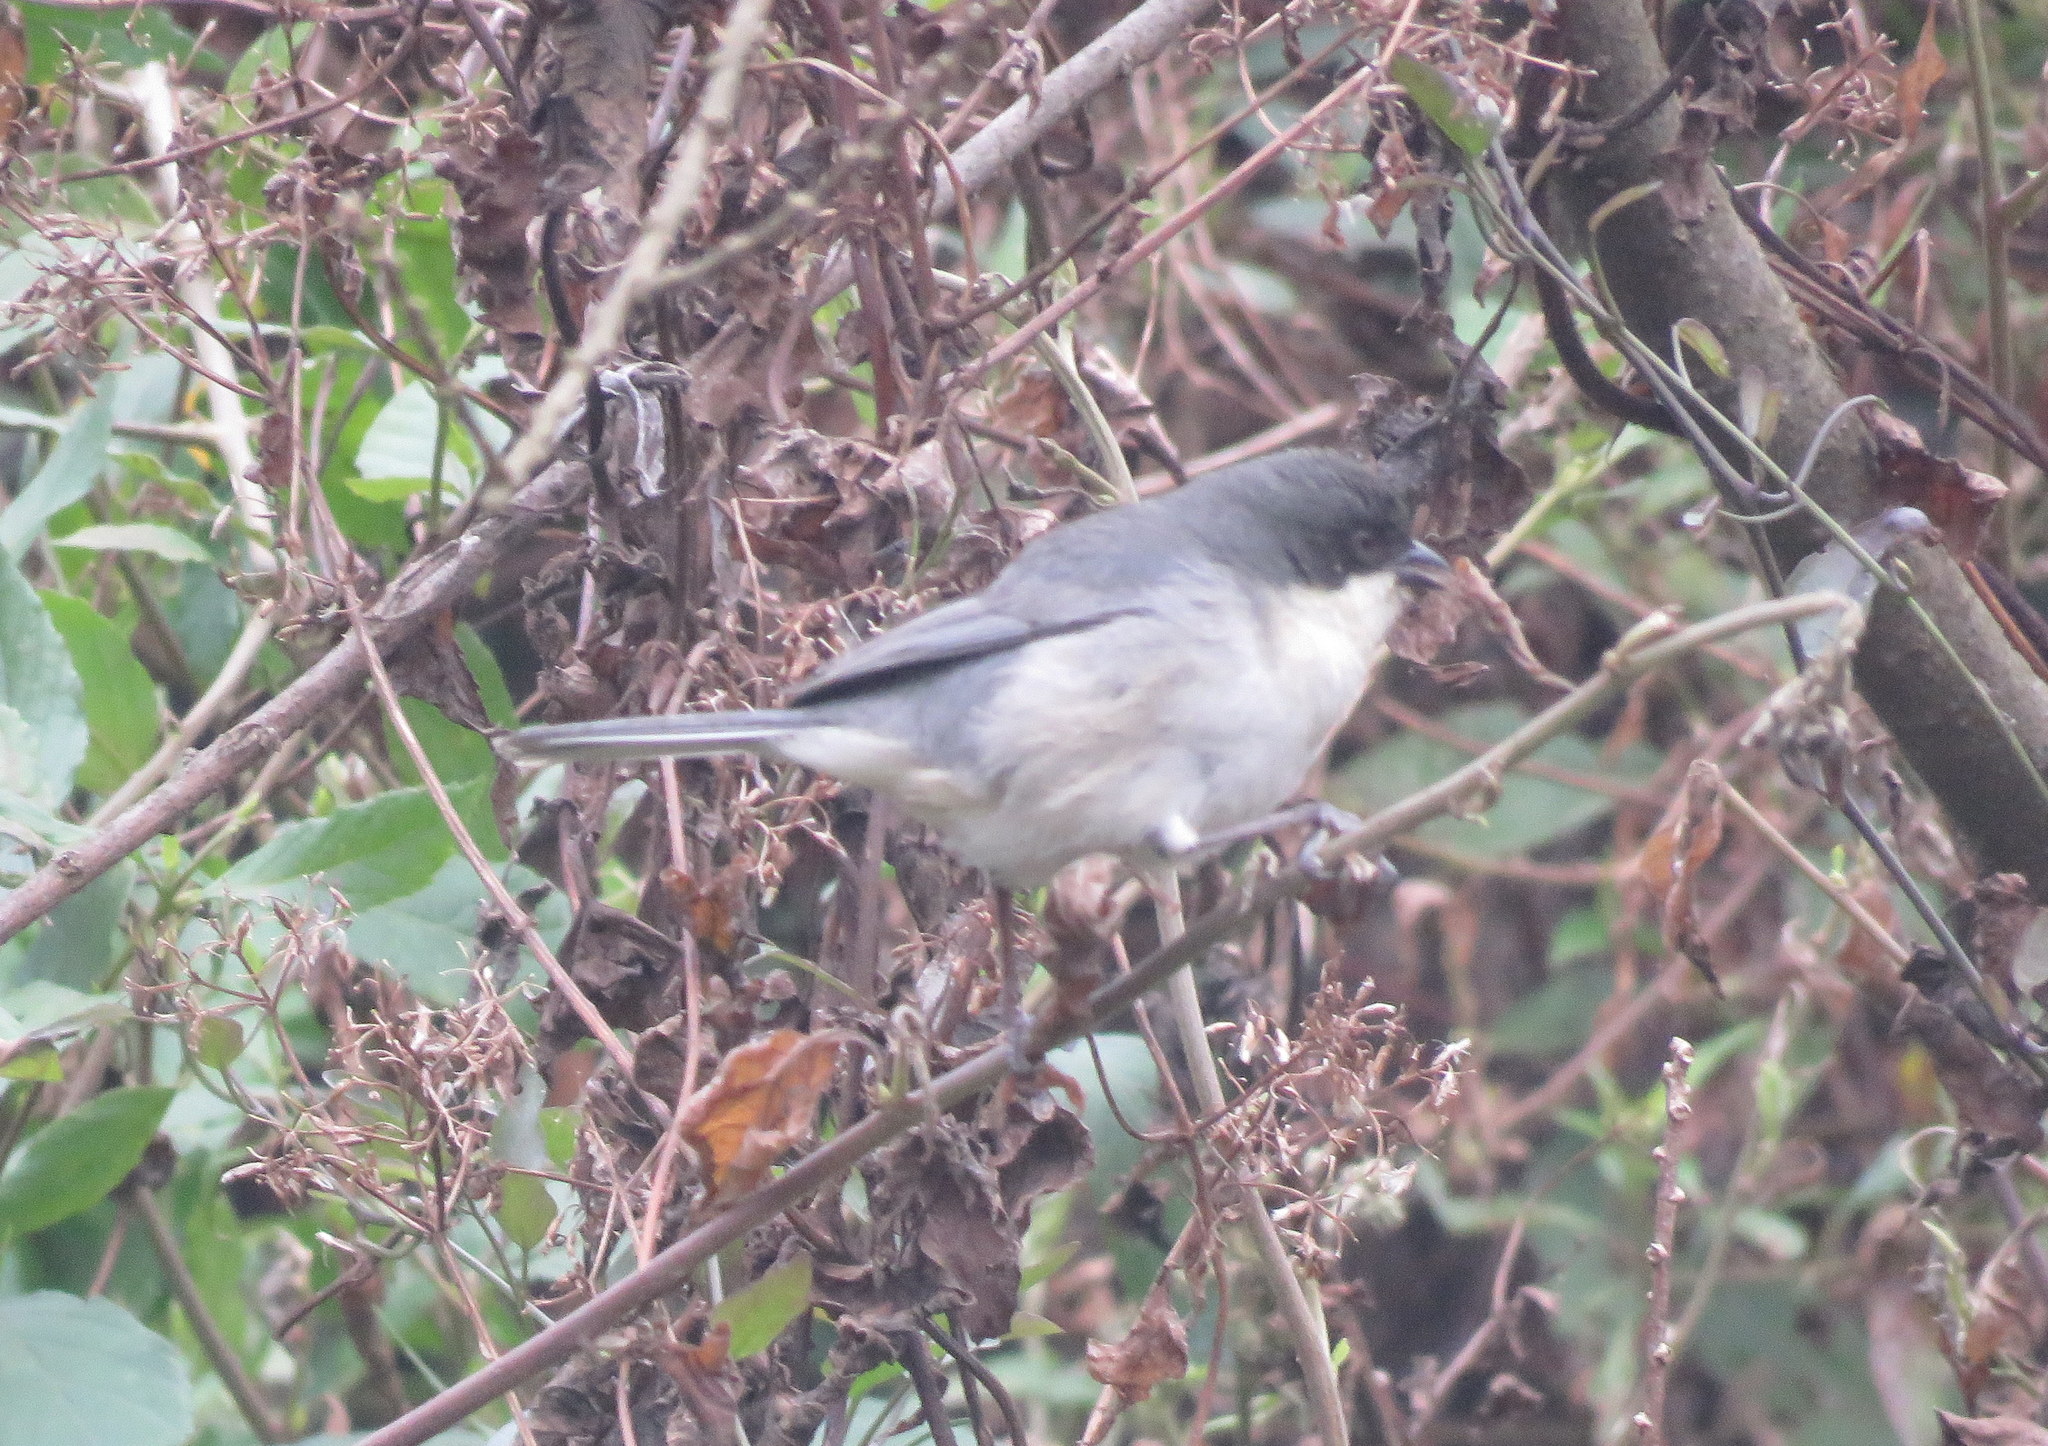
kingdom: Animalia
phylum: Chordata
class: Aves
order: Passeriformes
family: Thraupidae
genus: Microspingus
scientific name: Microspingus melanoleucus
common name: Black-capped warbling-finch
